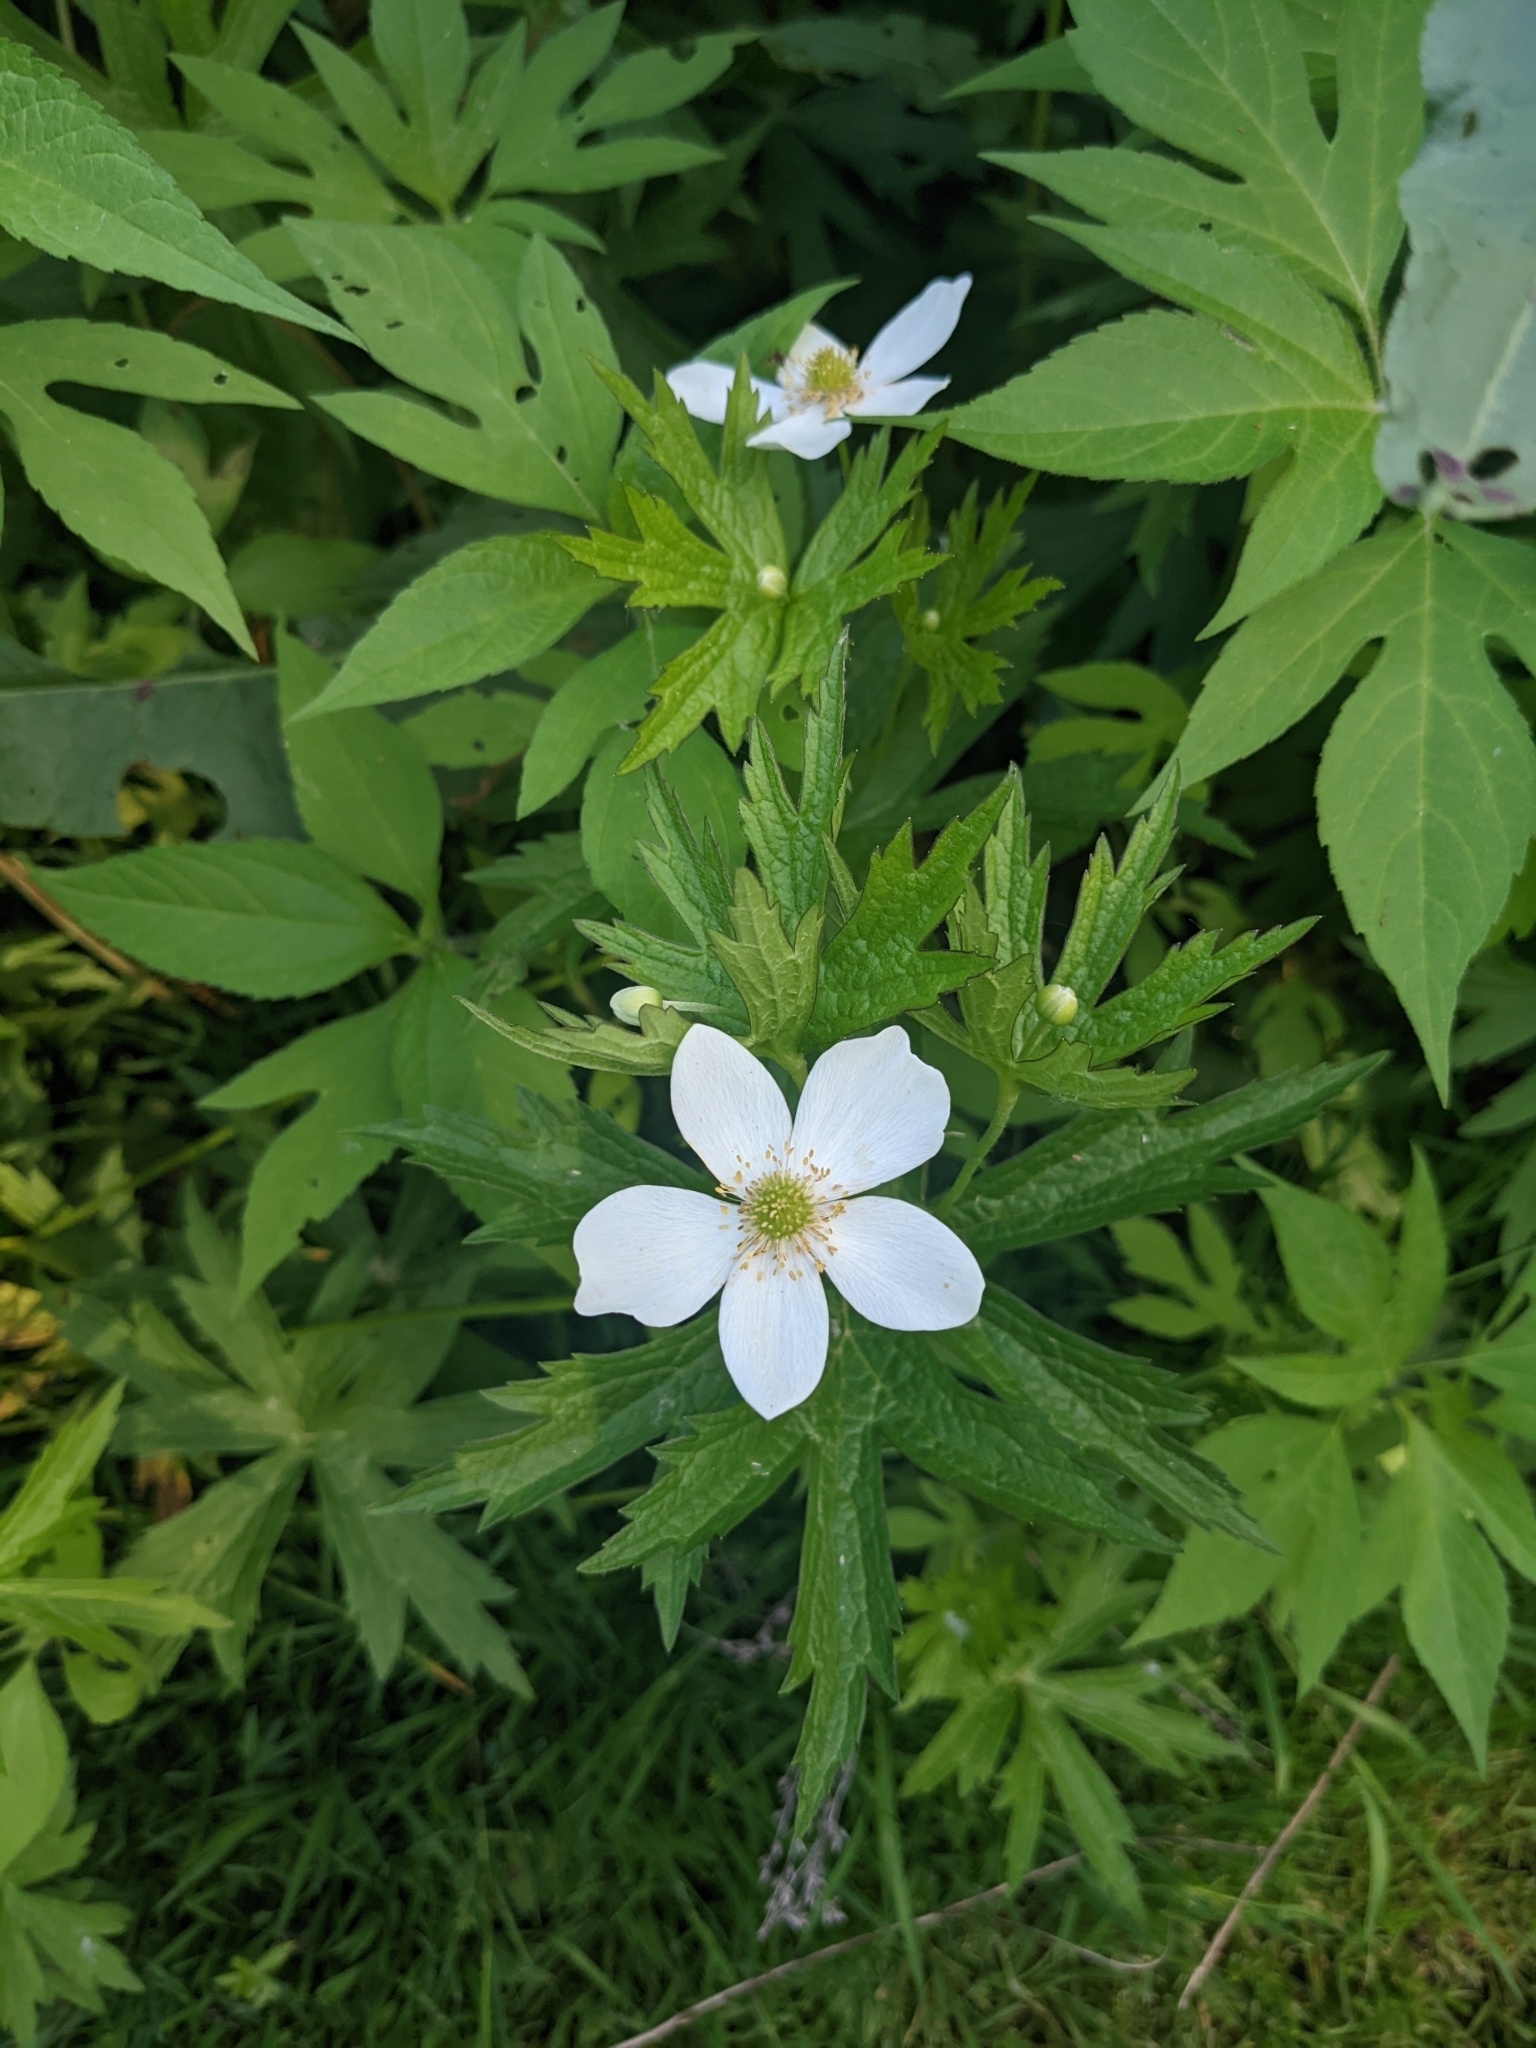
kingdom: Plantae
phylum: Tracheophyta
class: Magnoliopsida
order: Ranunculales
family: Ranunculaceae
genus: Anemonastrum
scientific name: Anemonastrum canadense
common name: Canada anemone
